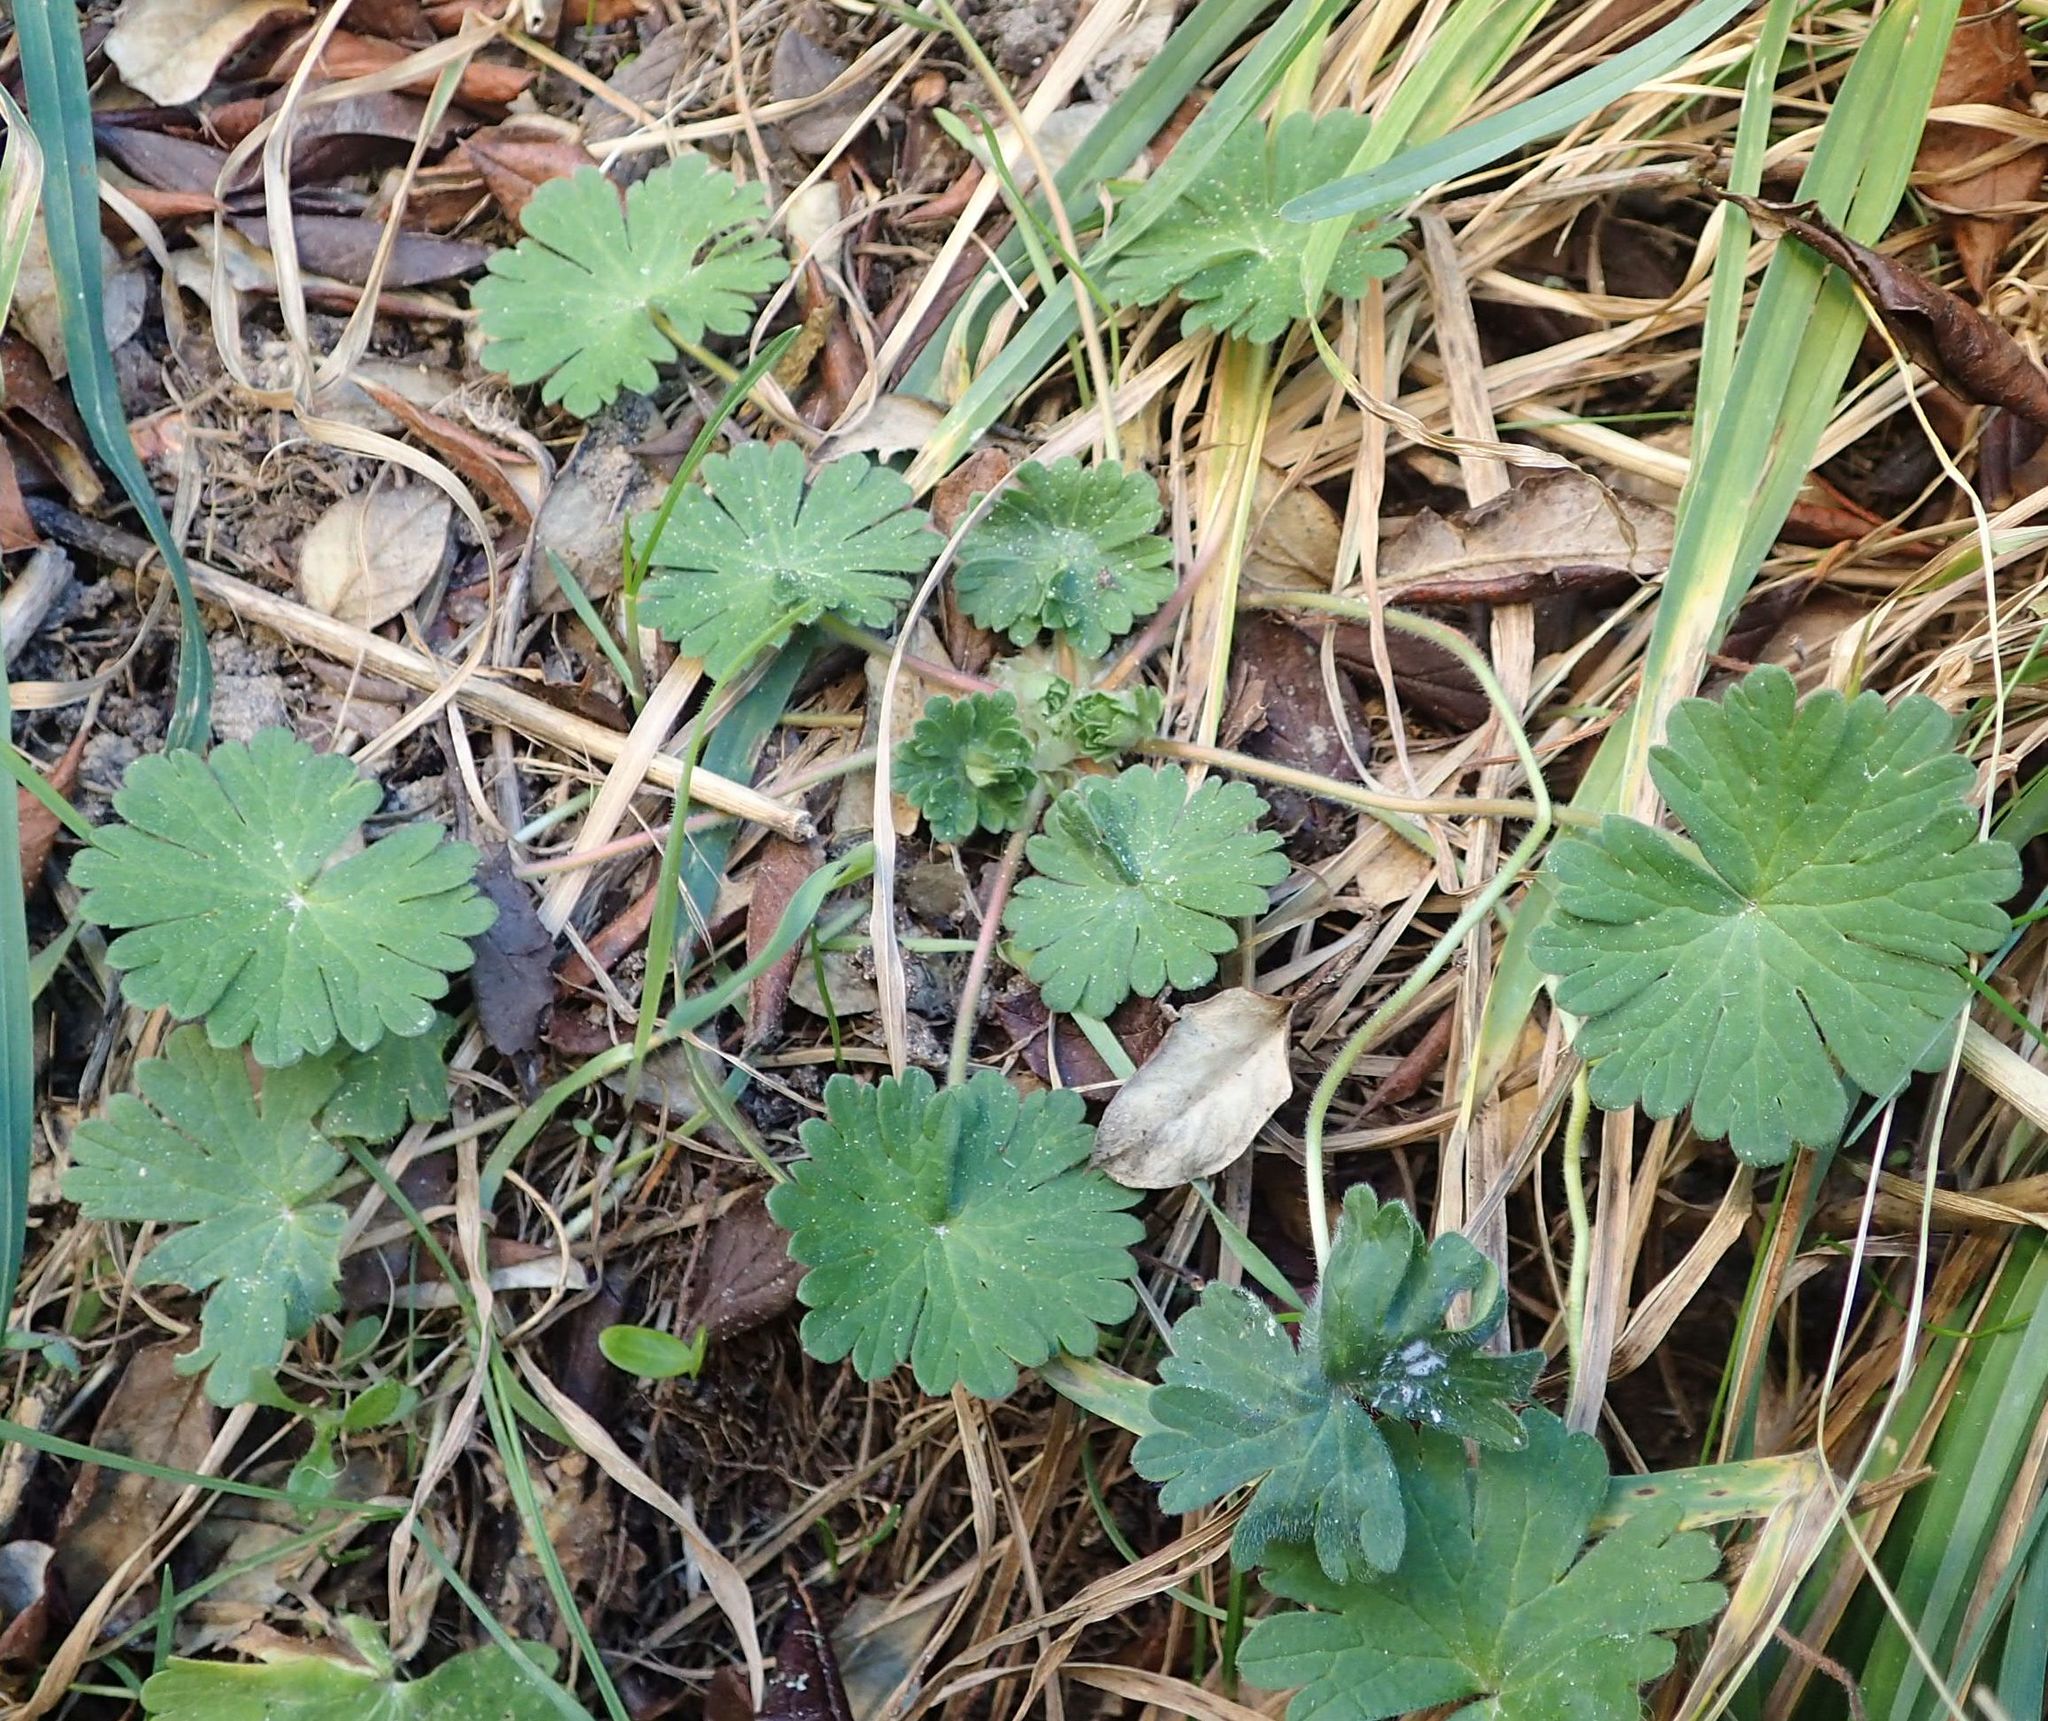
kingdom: Plantae
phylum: Tracheophyta
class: Magnoliopsida
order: Geraniales
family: Geraniaceae
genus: Geranium
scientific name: Geranium molle
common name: Dove's-foot crane's-bill
